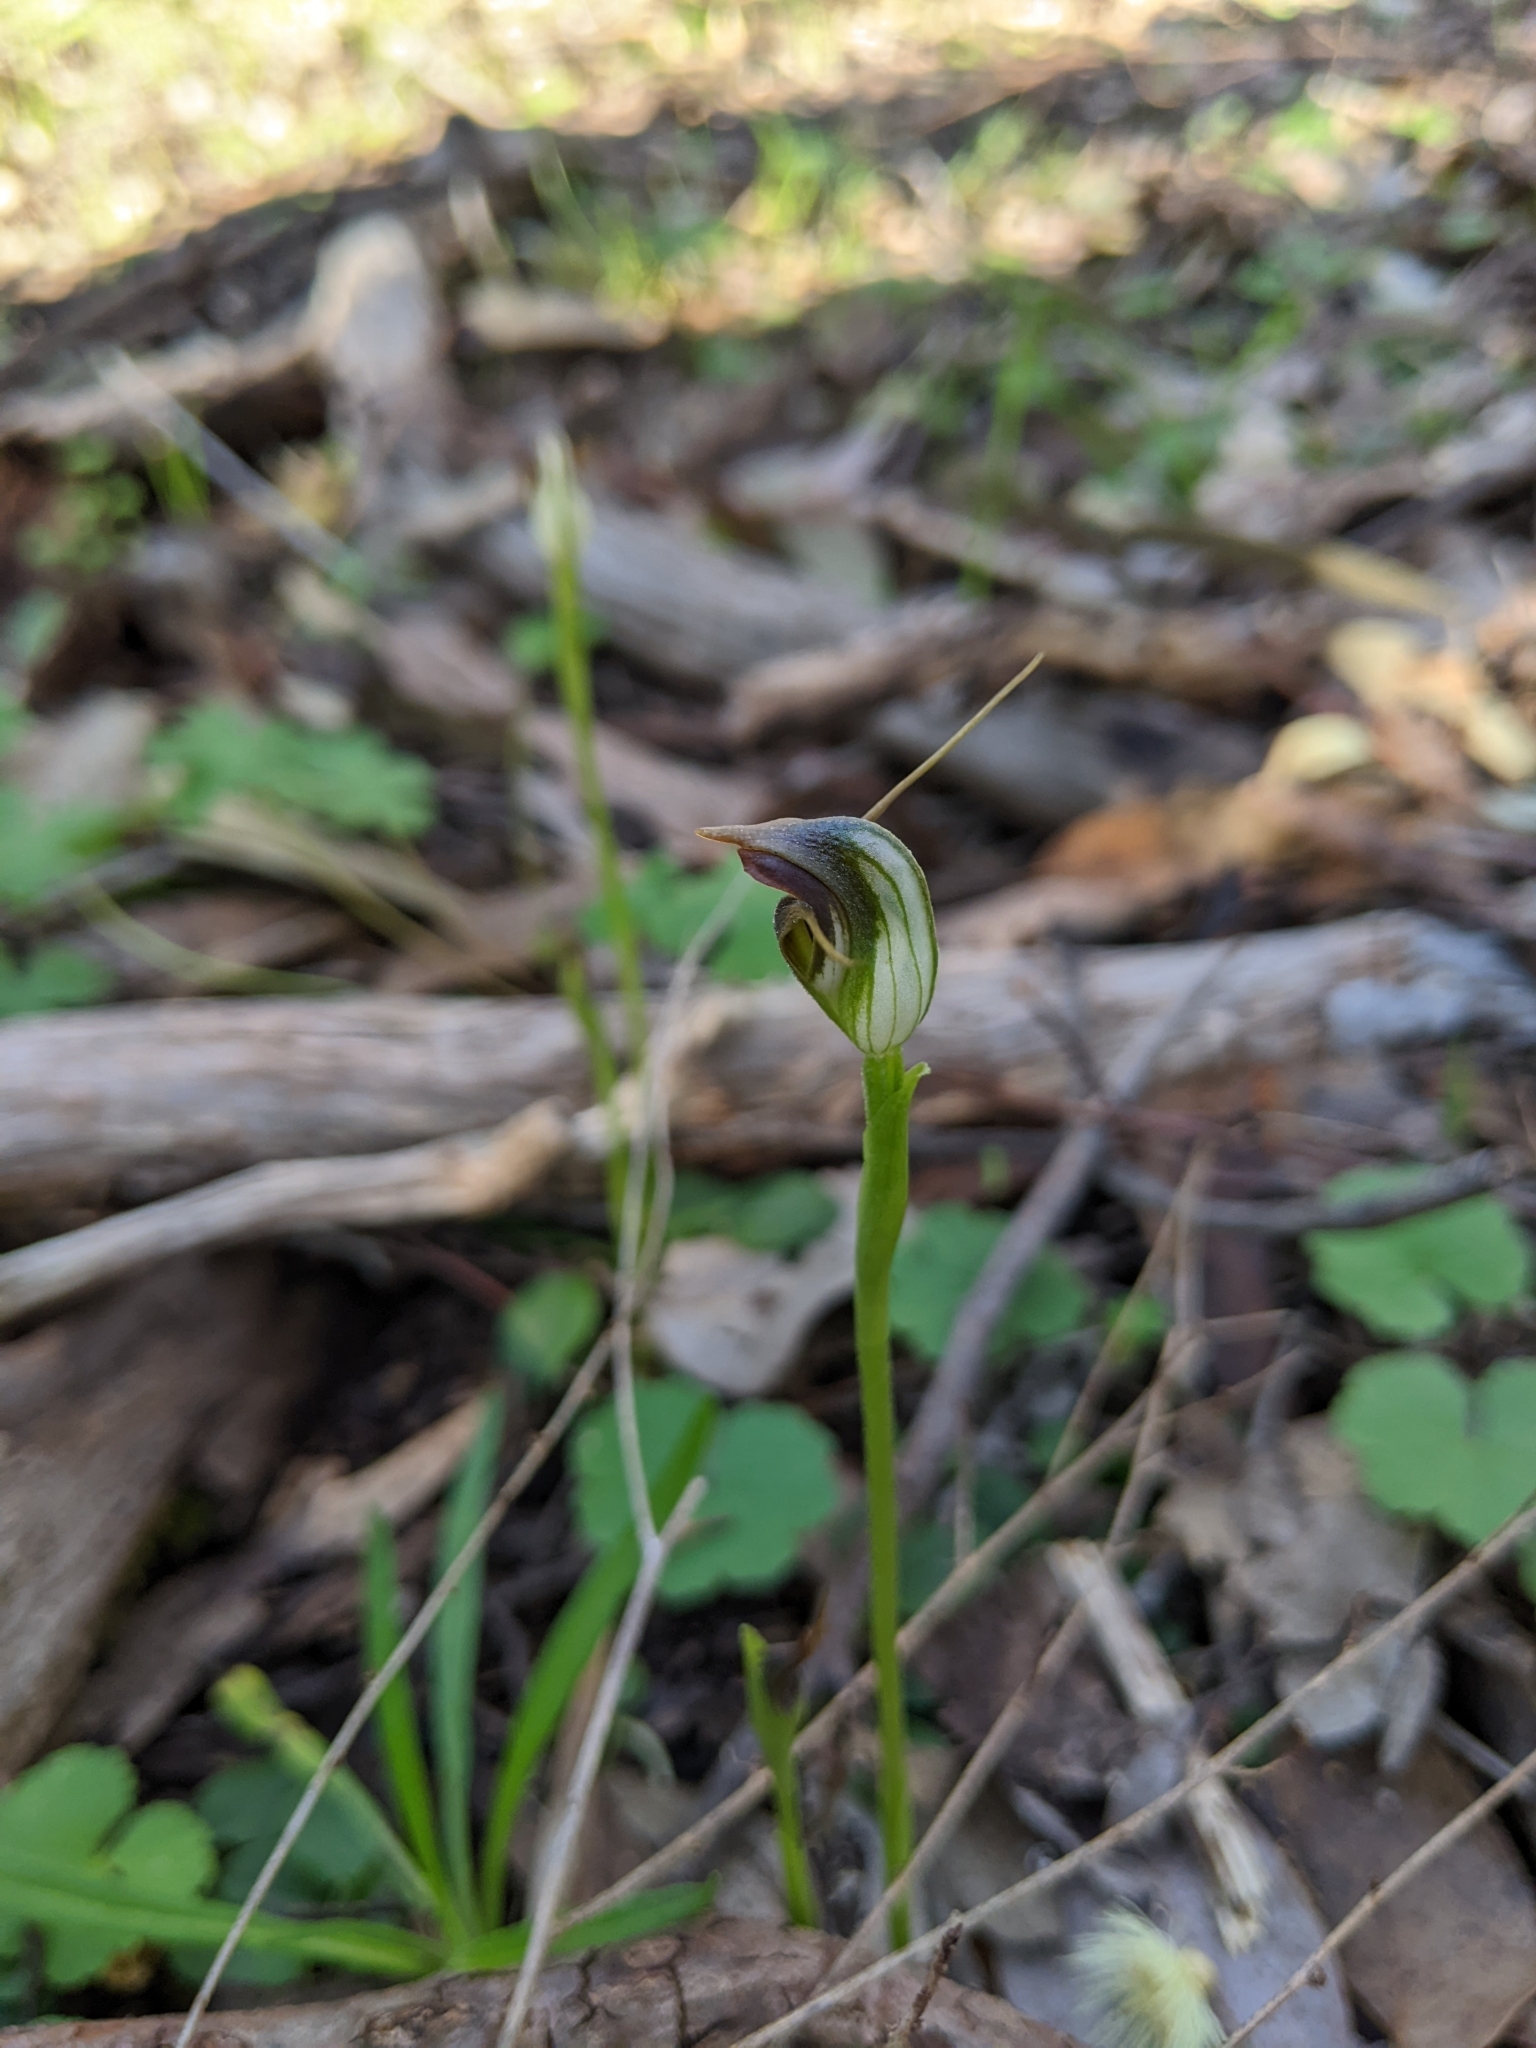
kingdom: Plantae
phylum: Tracheophyta
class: Liliopsida
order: Asparagales
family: Orchidaceae
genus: Pterostylis
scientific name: Pterostylis pedunculata
